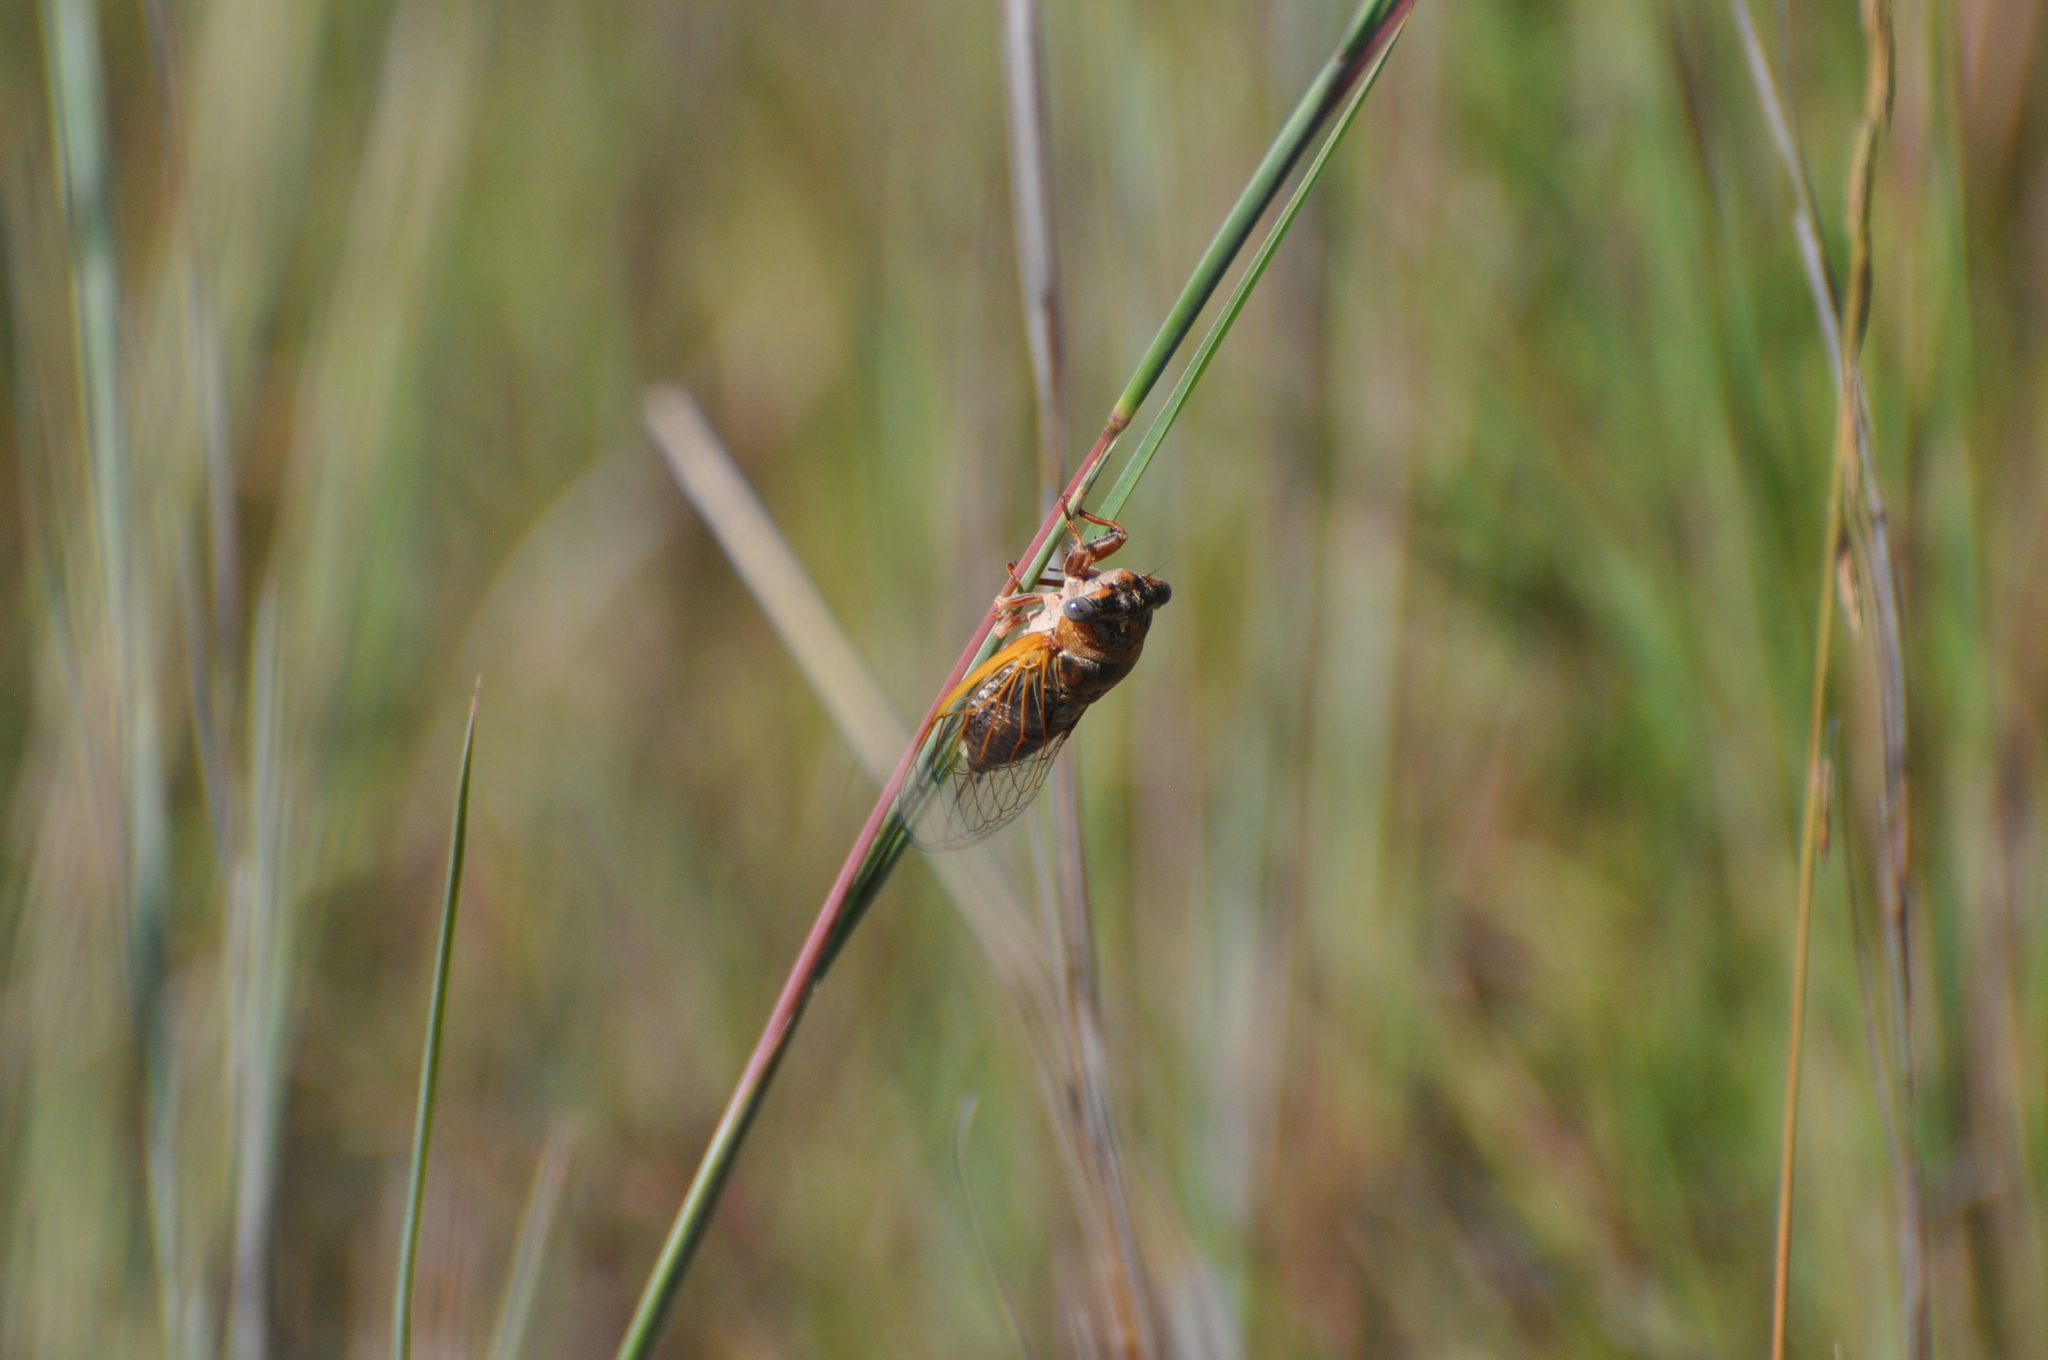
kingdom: Animalia
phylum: Arthropoda
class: Insecta
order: Hemiptera
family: Cicadidae
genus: Neotibicen
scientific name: Neotibicen aurifer
